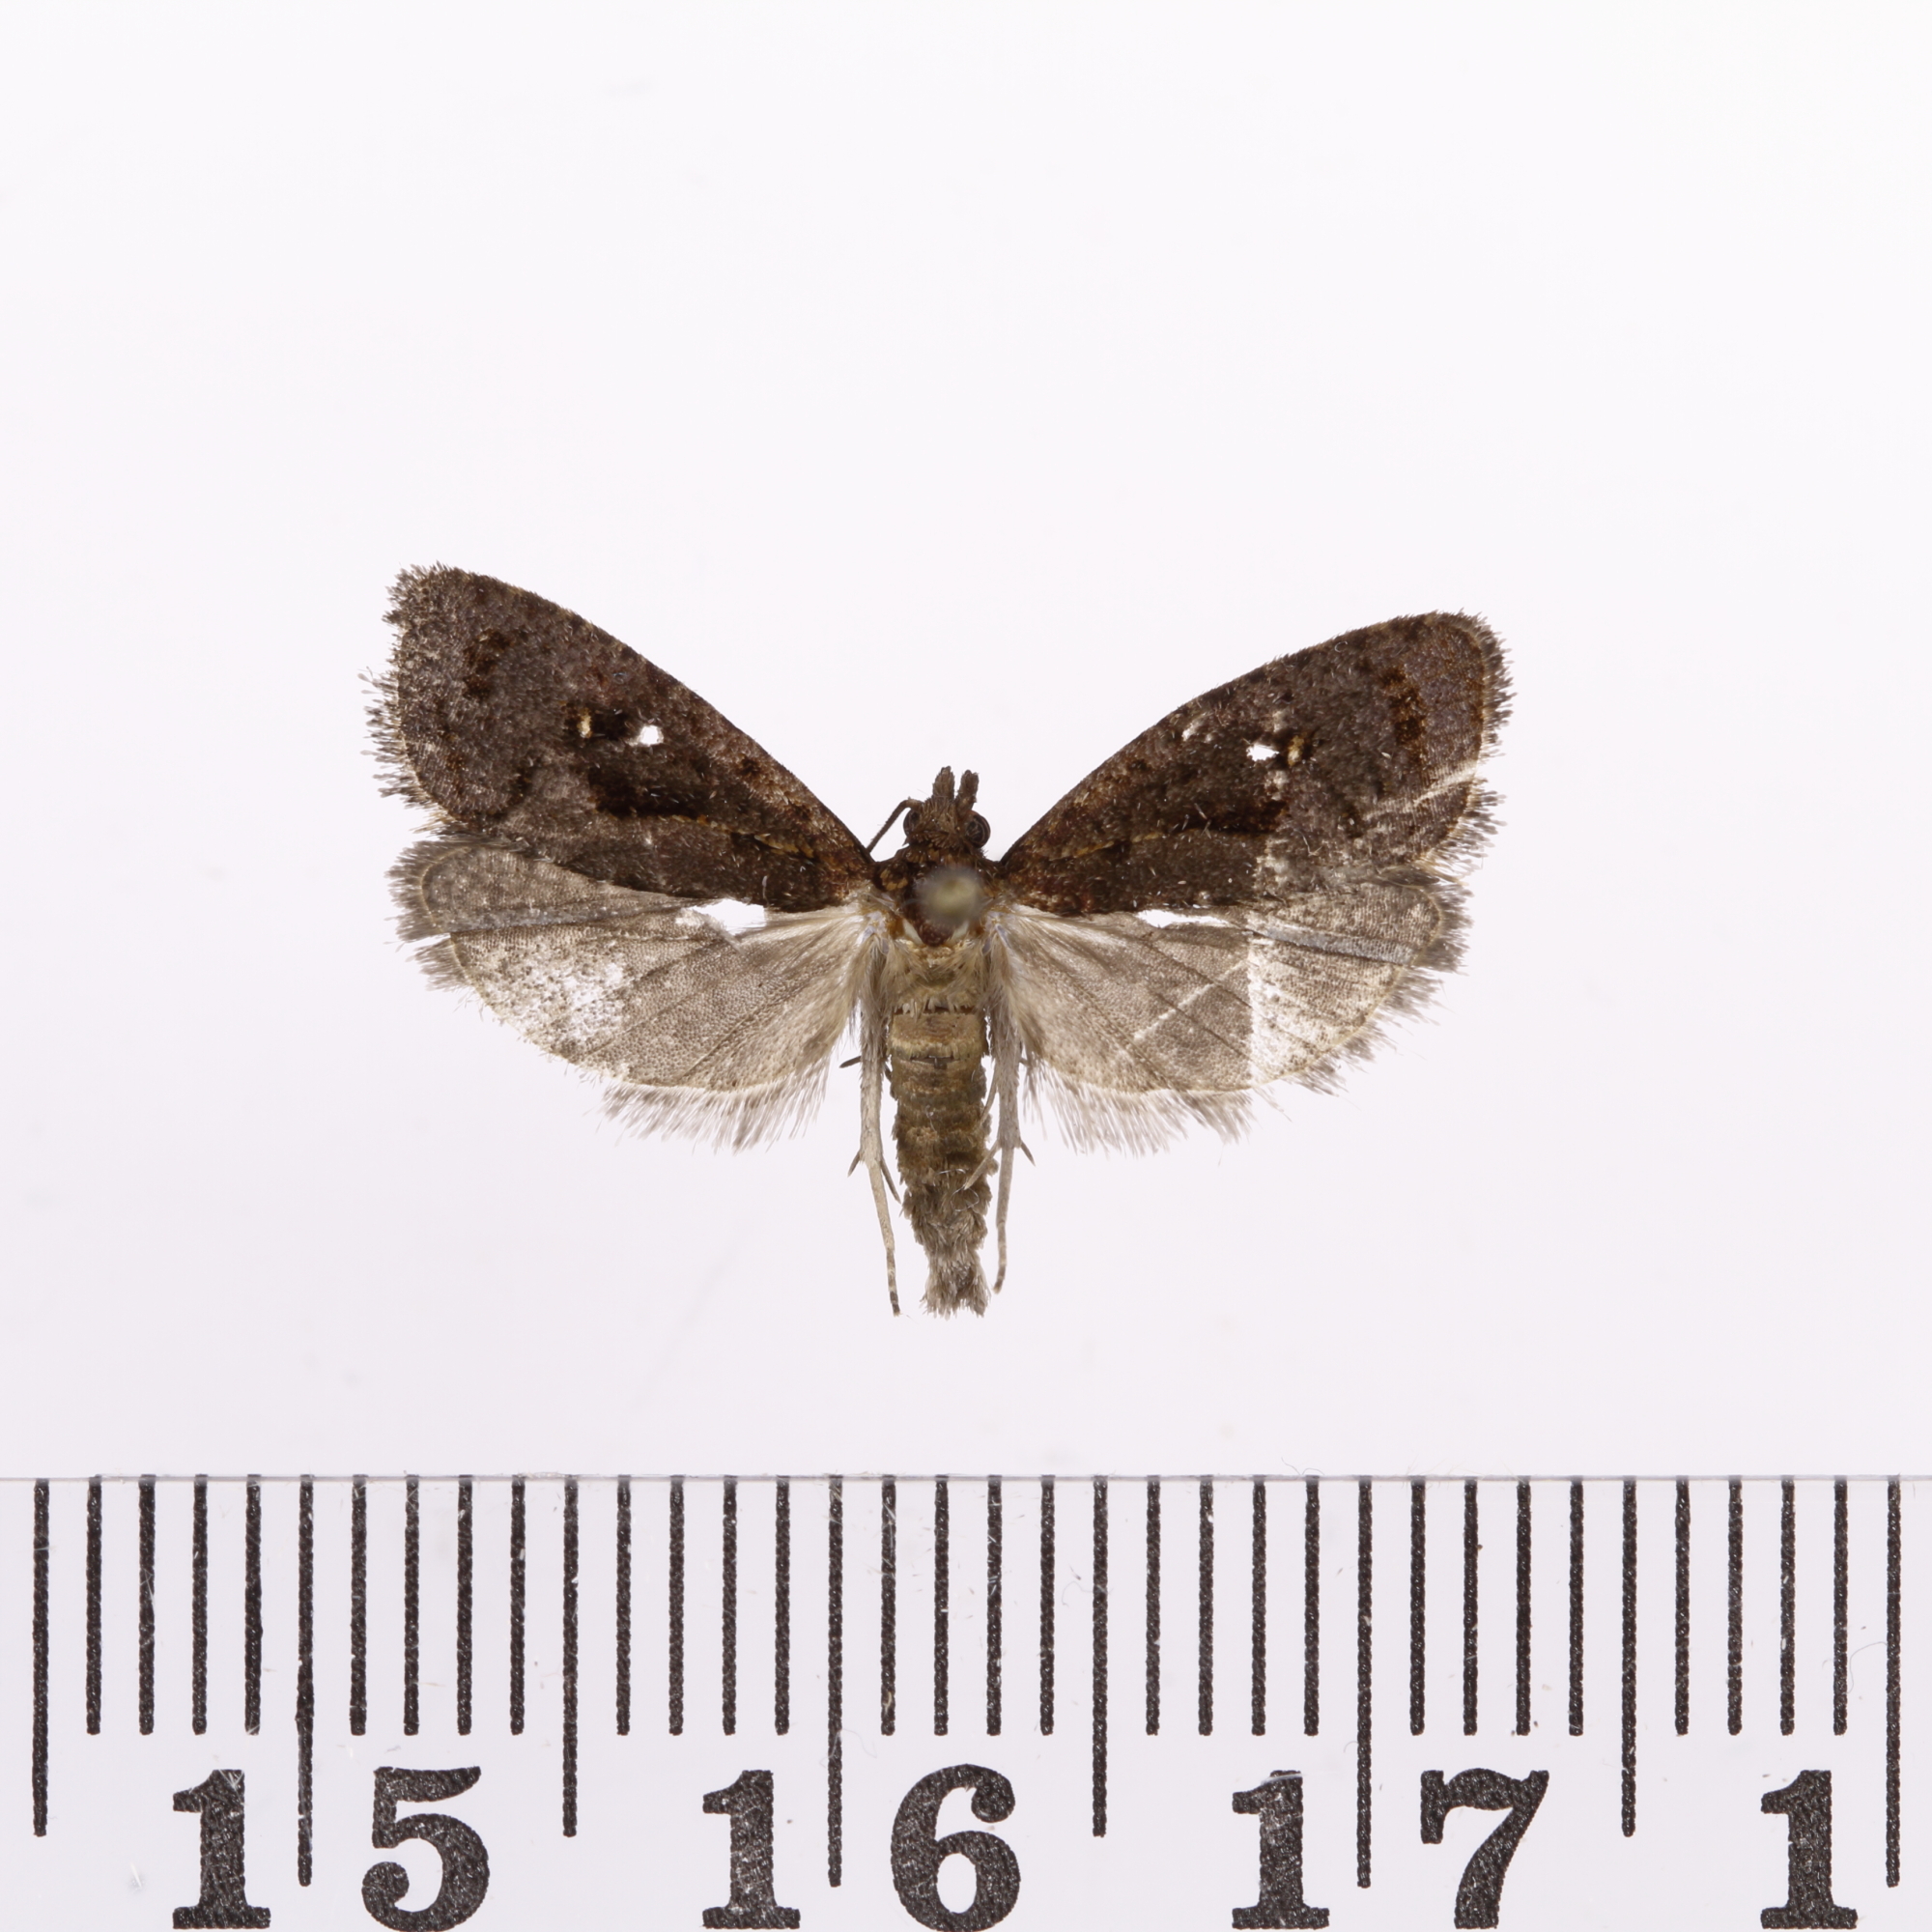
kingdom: Animalia
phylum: Arthropoda
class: Insecta
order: Lepidoptera
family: Tortricidae
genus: Cryptaspasma
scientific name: Cryptaspasma querula
